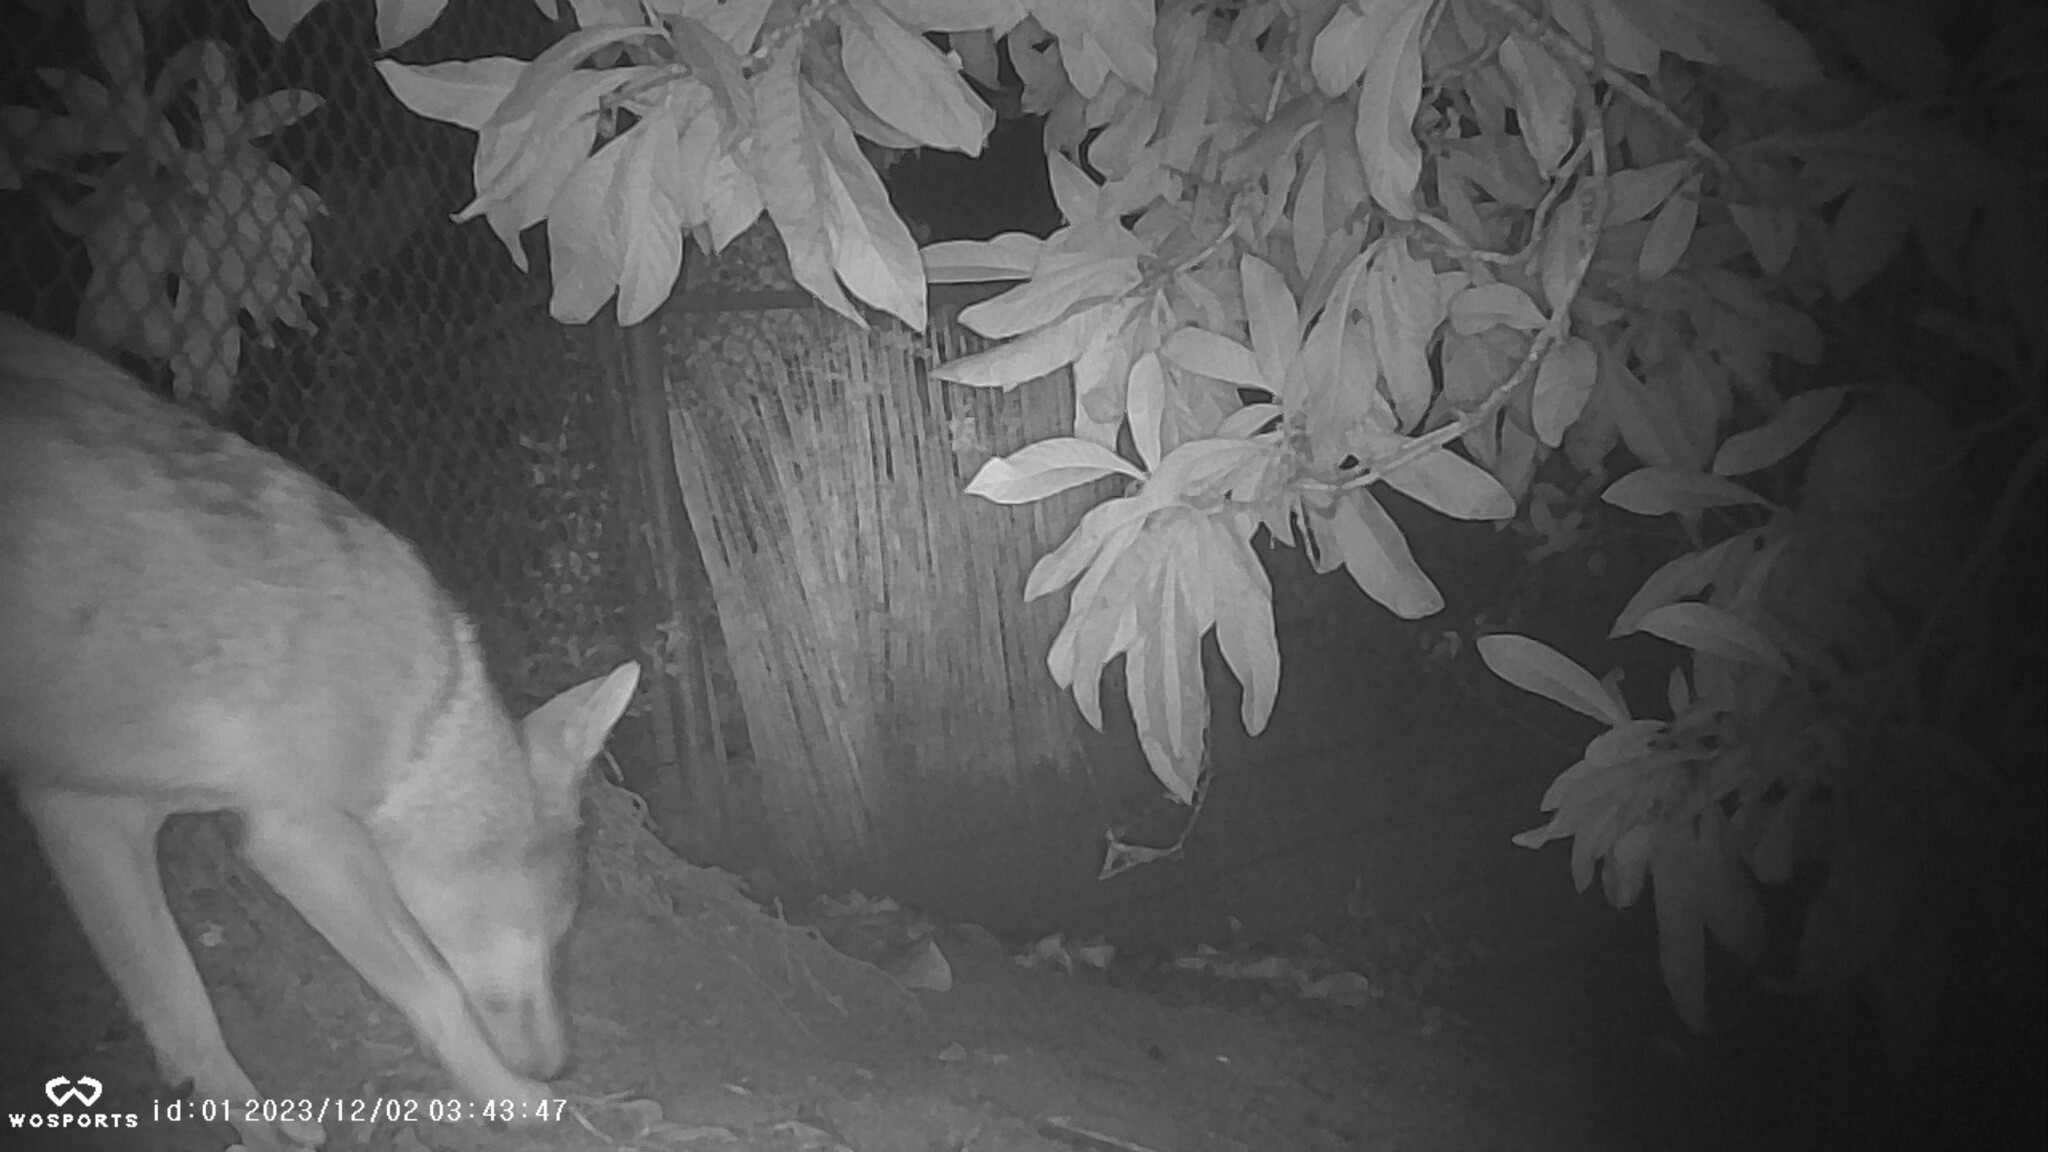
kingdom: Animalia
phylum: Chordata
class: Mammalia
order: Carnivora
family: Canidae
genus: Canis
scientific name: Canis latrans
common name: Coyote
